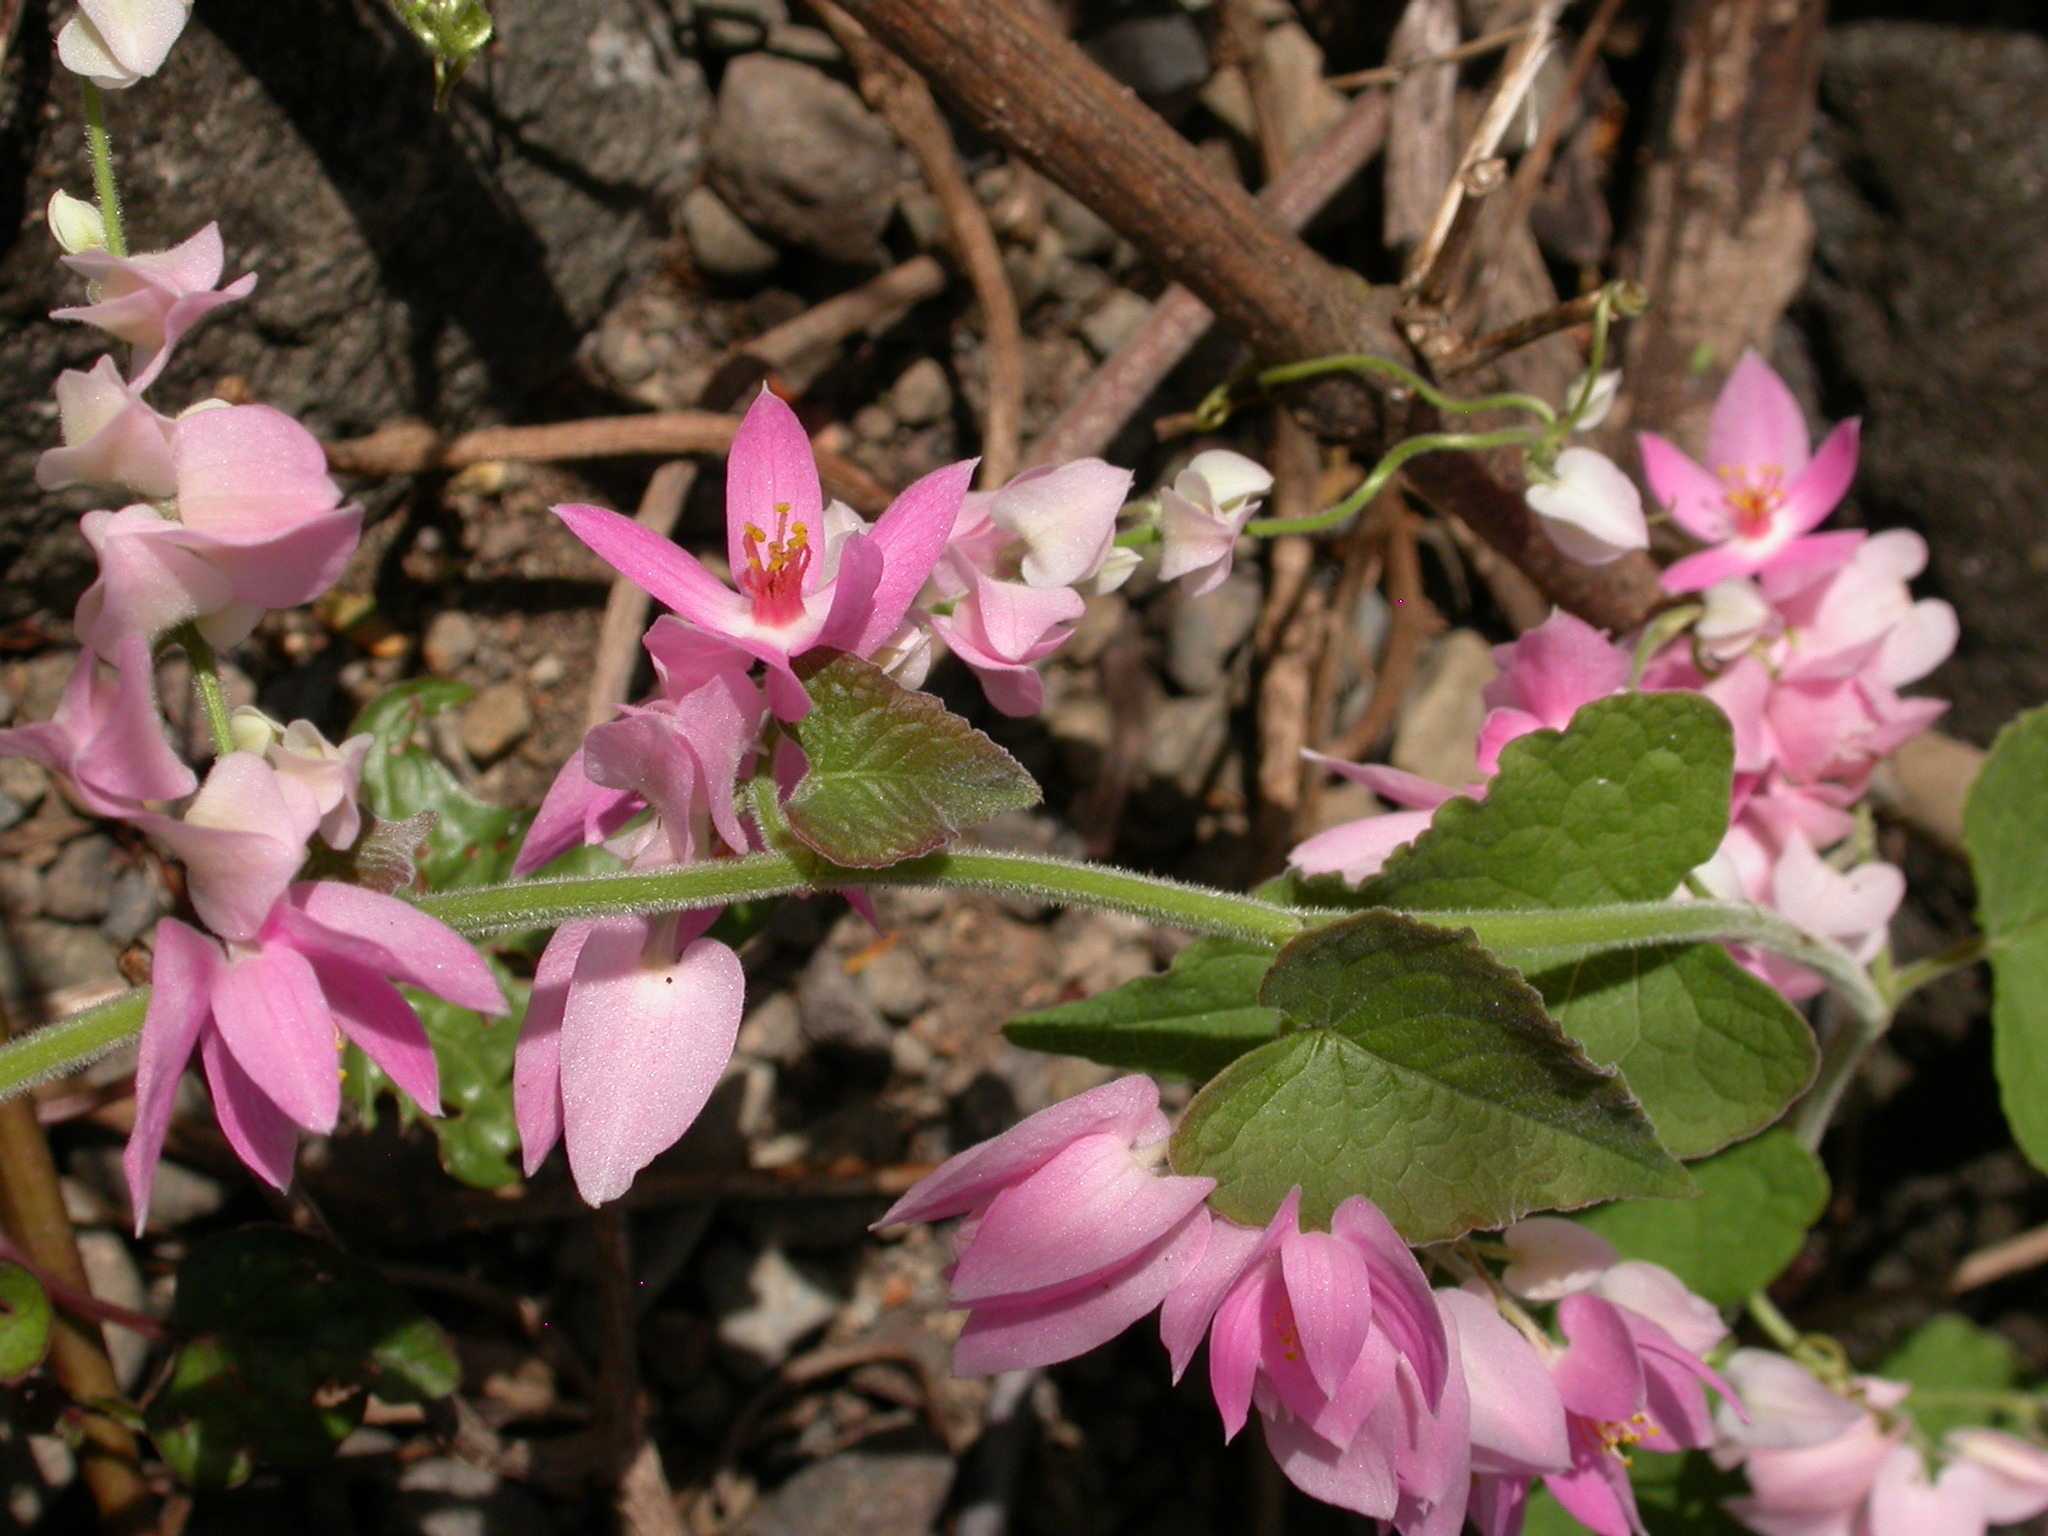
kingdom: Plantae
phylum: Tracheophyta
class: Magnoliopsida
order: Caryophyllales
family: Polygonaceae
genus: Antigonon
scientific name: Antigonon leptopus
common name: Coral vine
